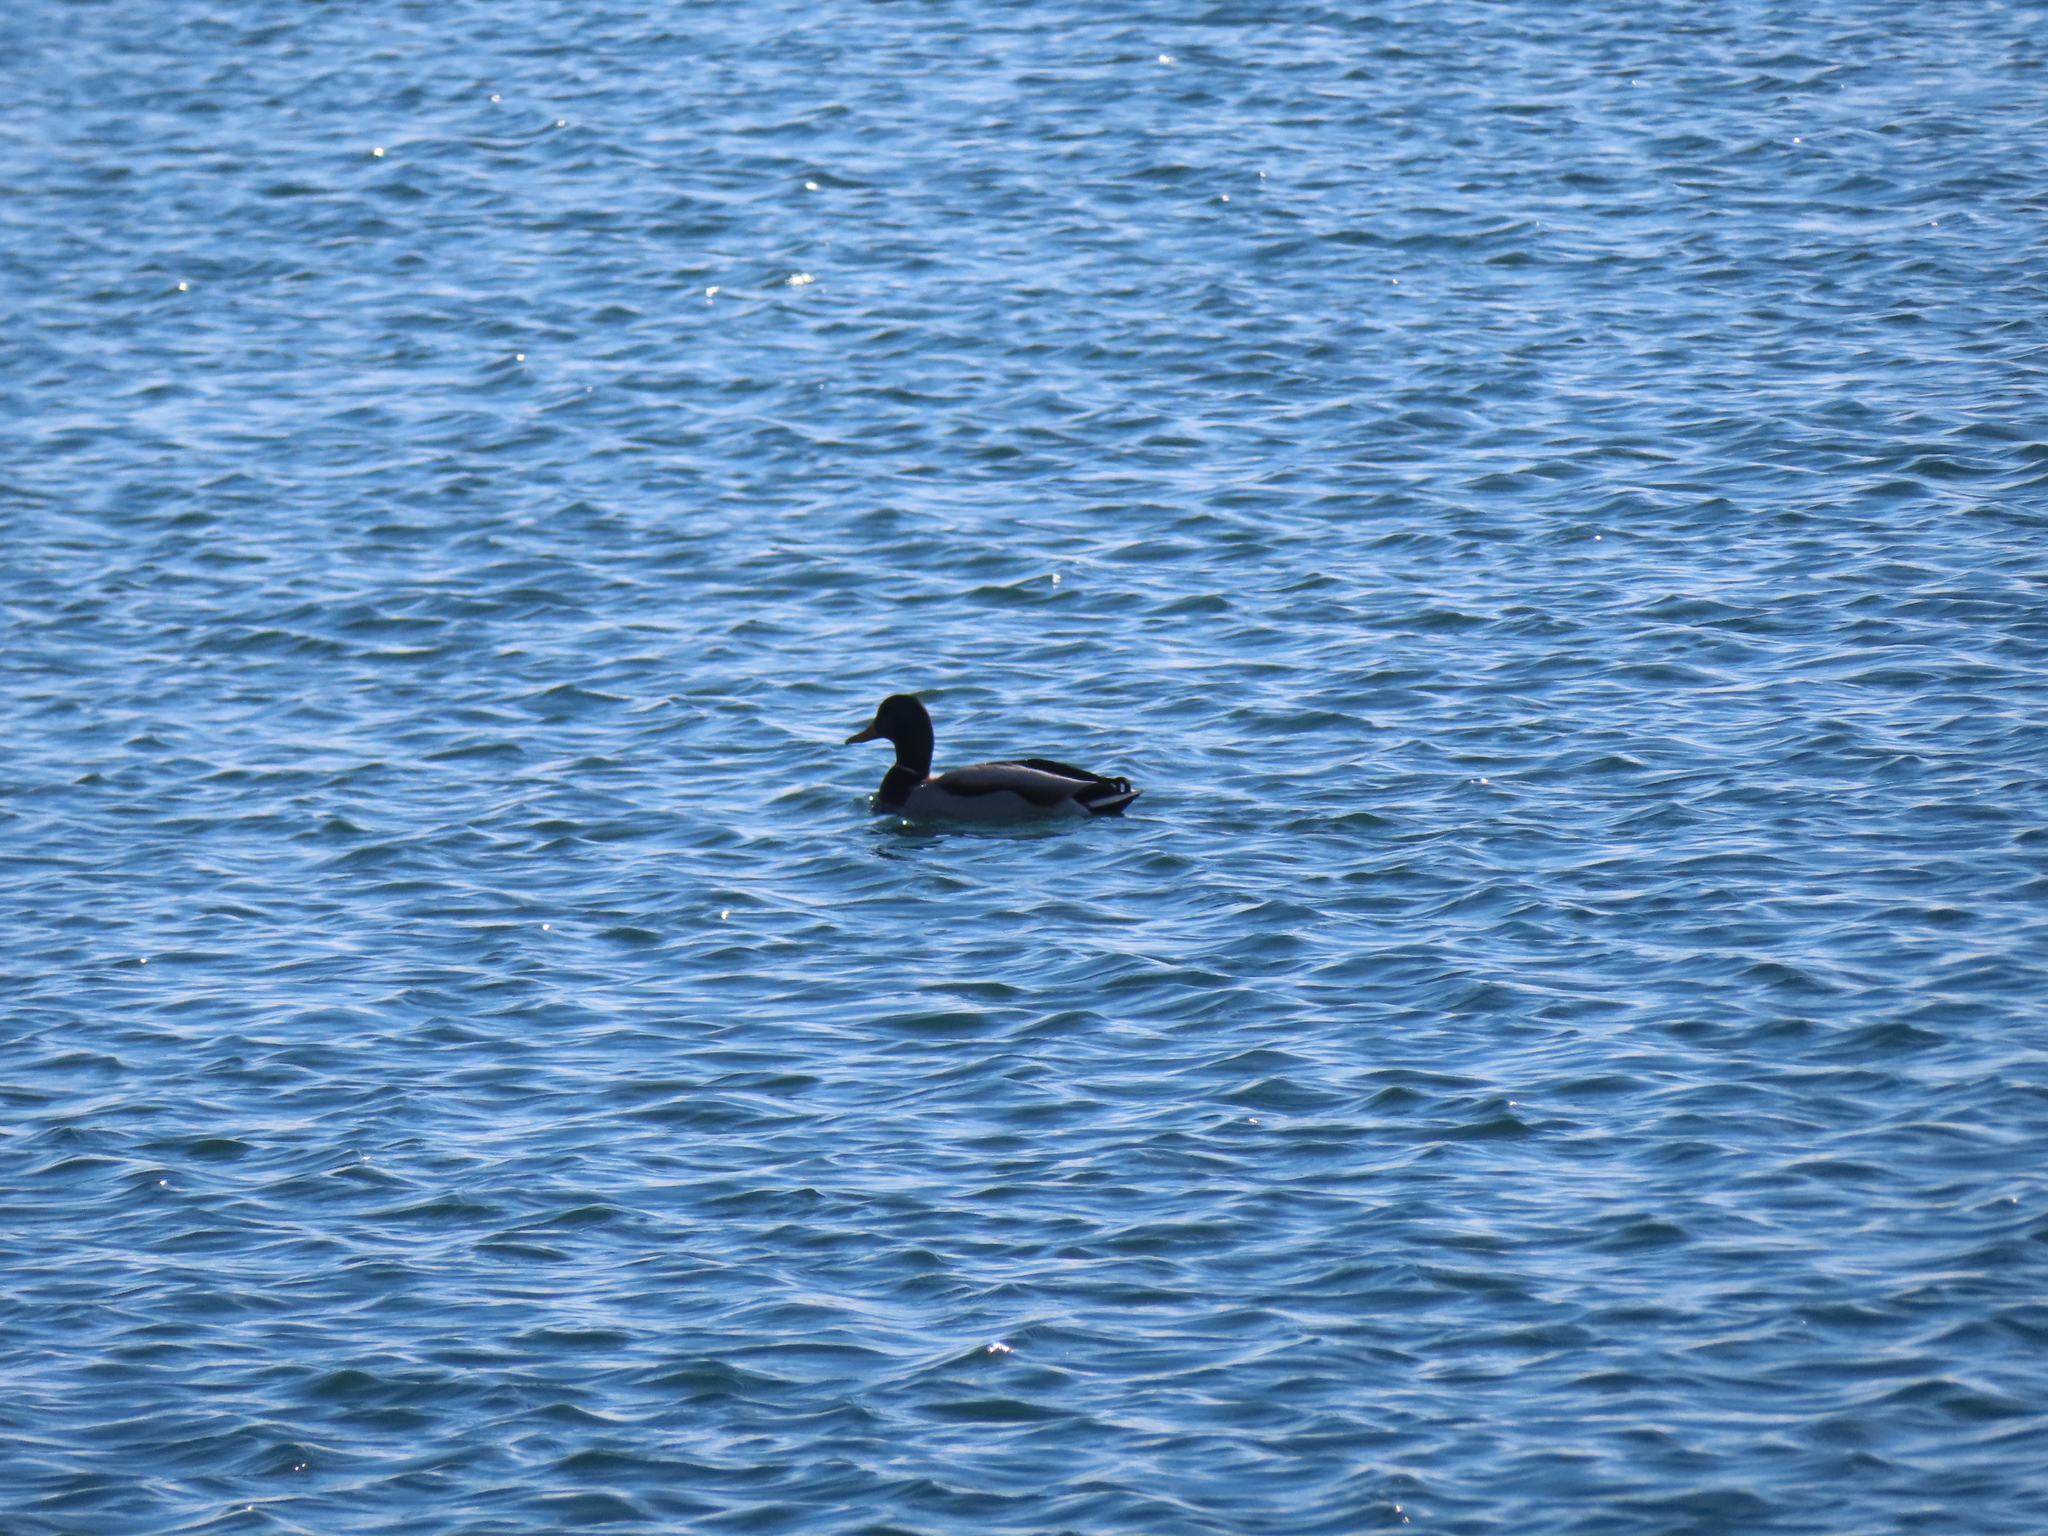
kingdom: Animalia
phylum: Chordata
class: Aves
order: Anseriformes
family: Anatidae
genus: Anas
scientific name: Anas platyrhynchos
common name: Mallard
